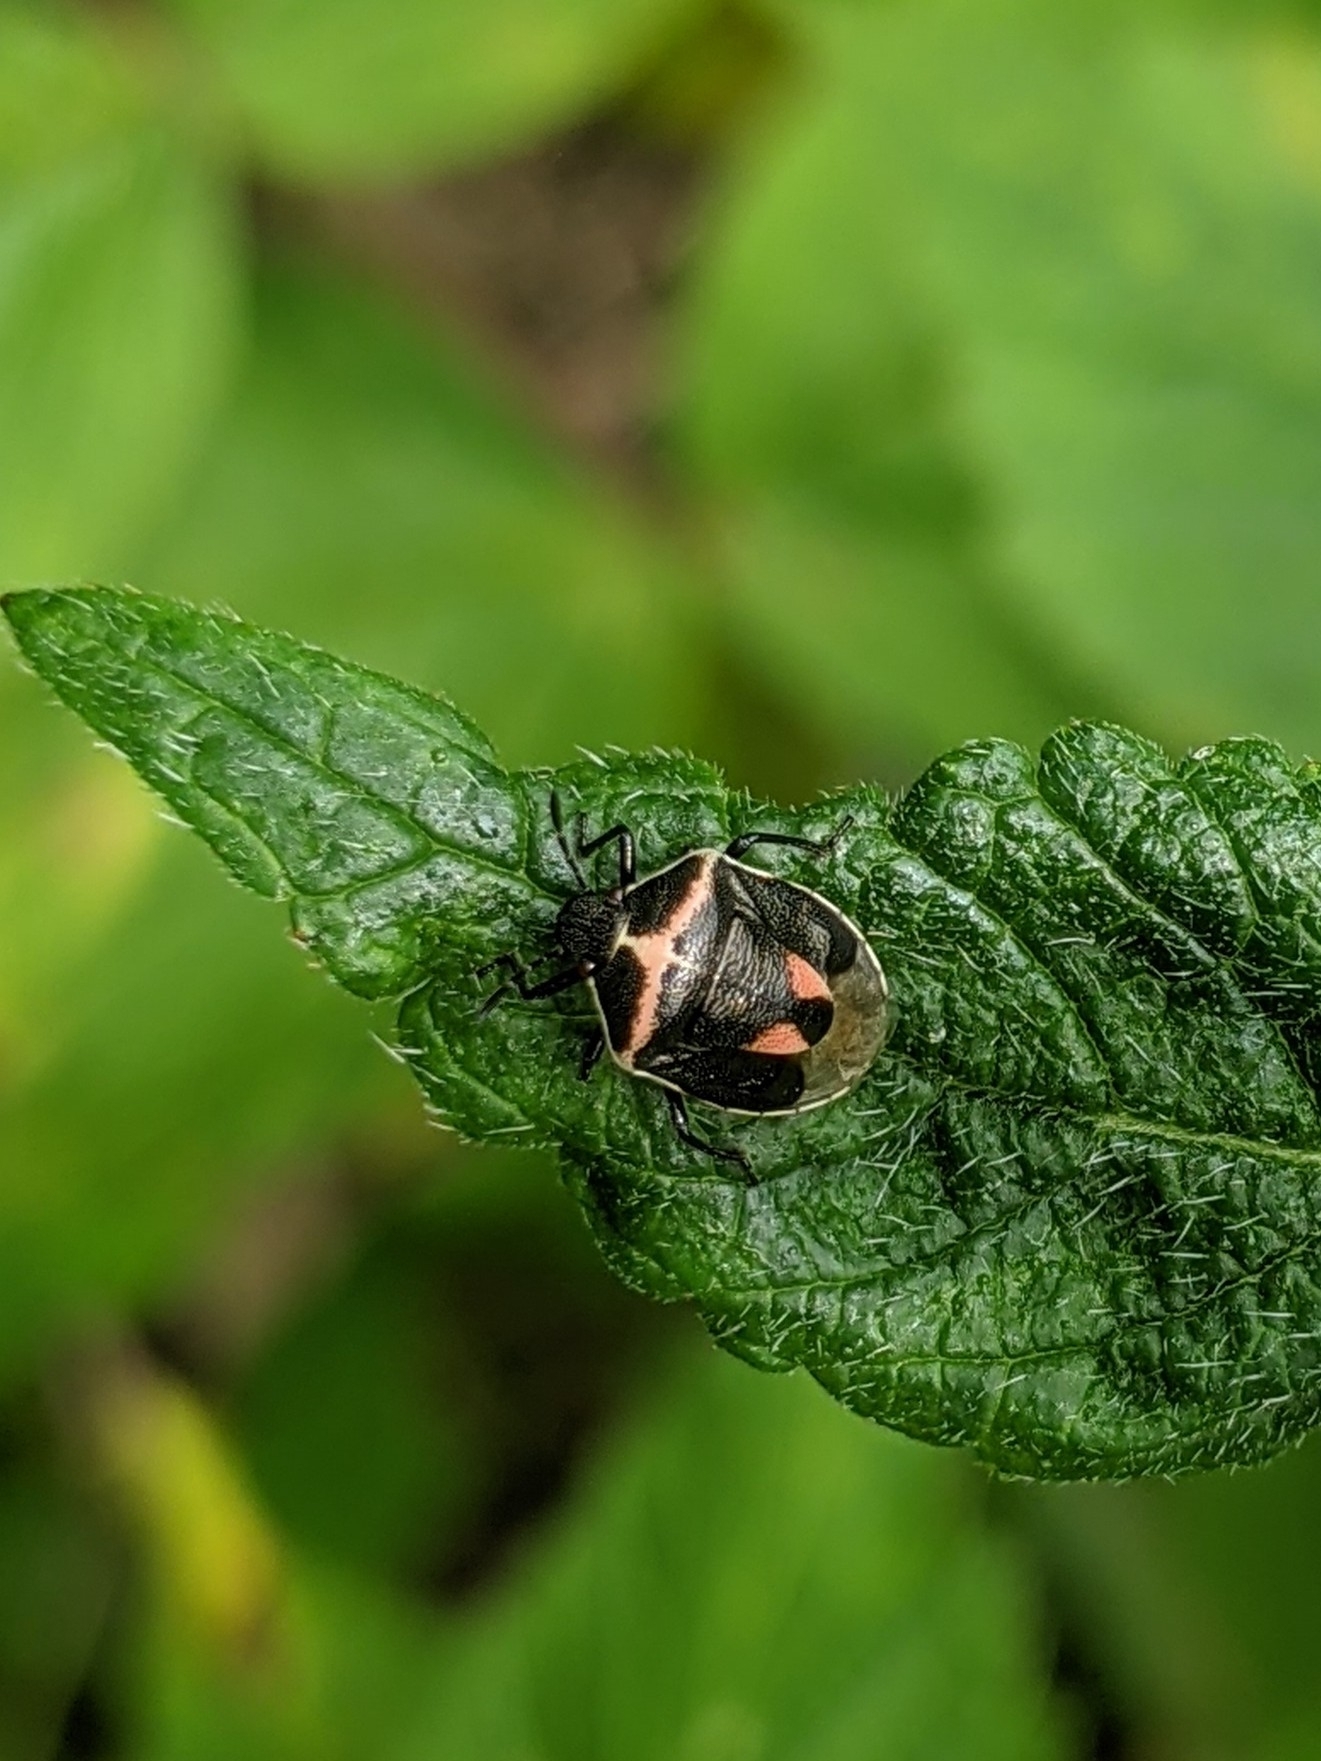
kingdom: Animalia
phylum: Arthropoda
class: Insecta
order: Hemiptera
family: Pentatomidae
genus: Cosmopepla
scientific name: Cosmopepla lintneriana
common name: Twice-stabbed stink bug
